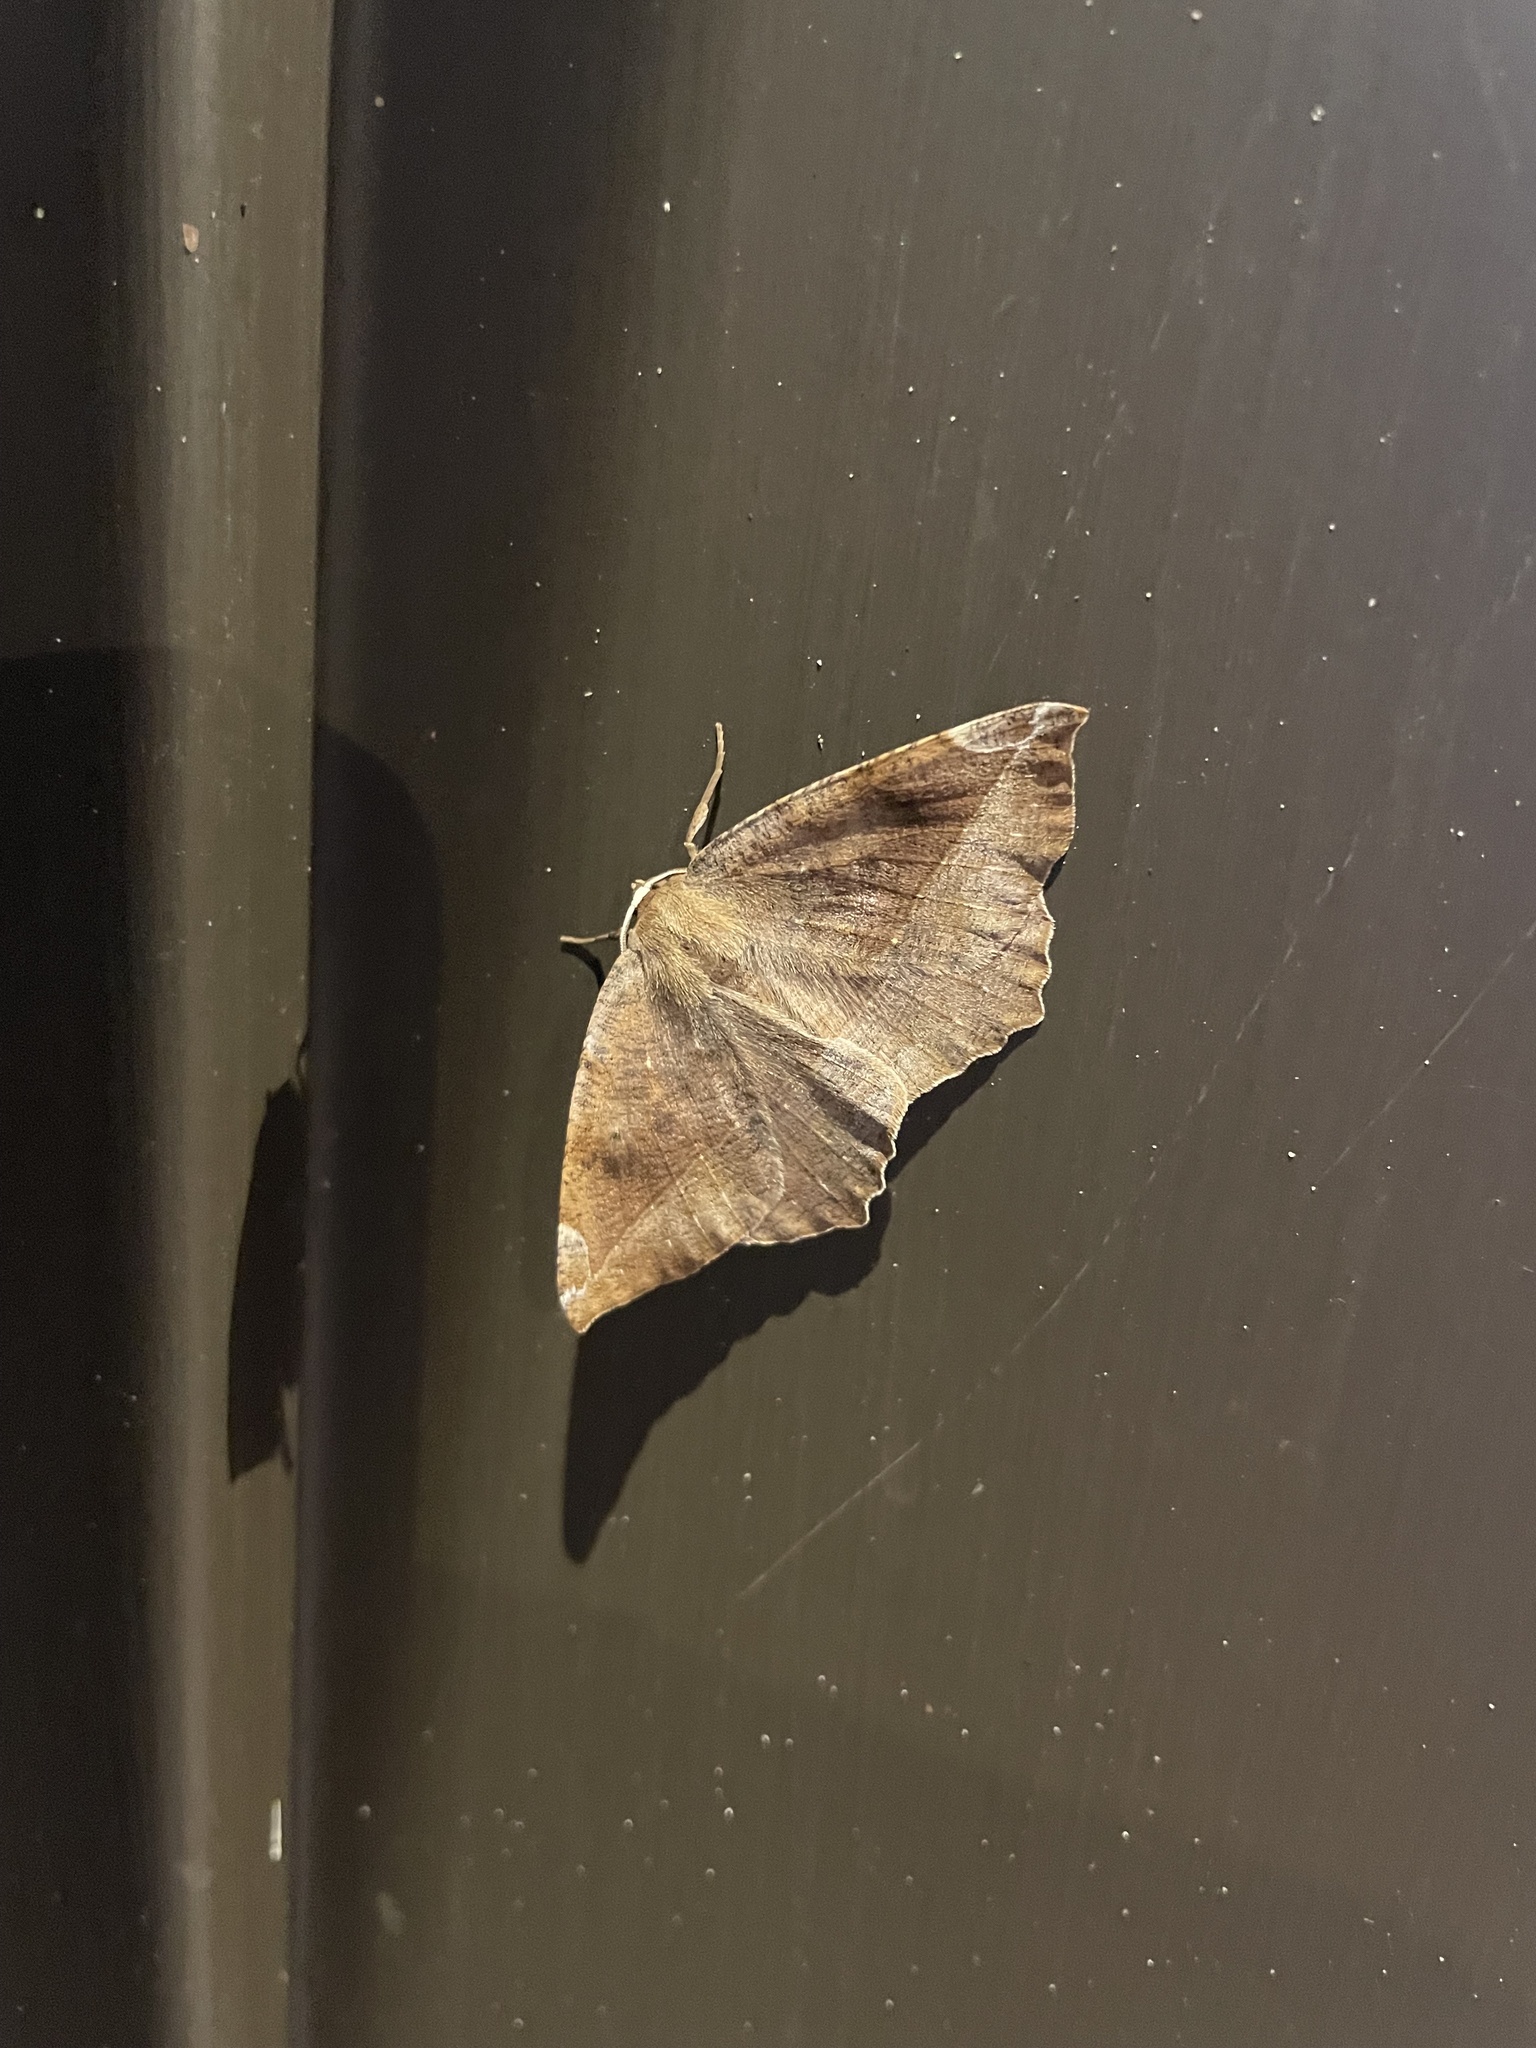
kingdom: Animalia
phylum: Arthropoda
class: Insecta
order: Lepidoptera
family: Geometridae
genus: Eutrapela
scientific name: Eutrapela clemataria
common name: Curved-toothed geometer
